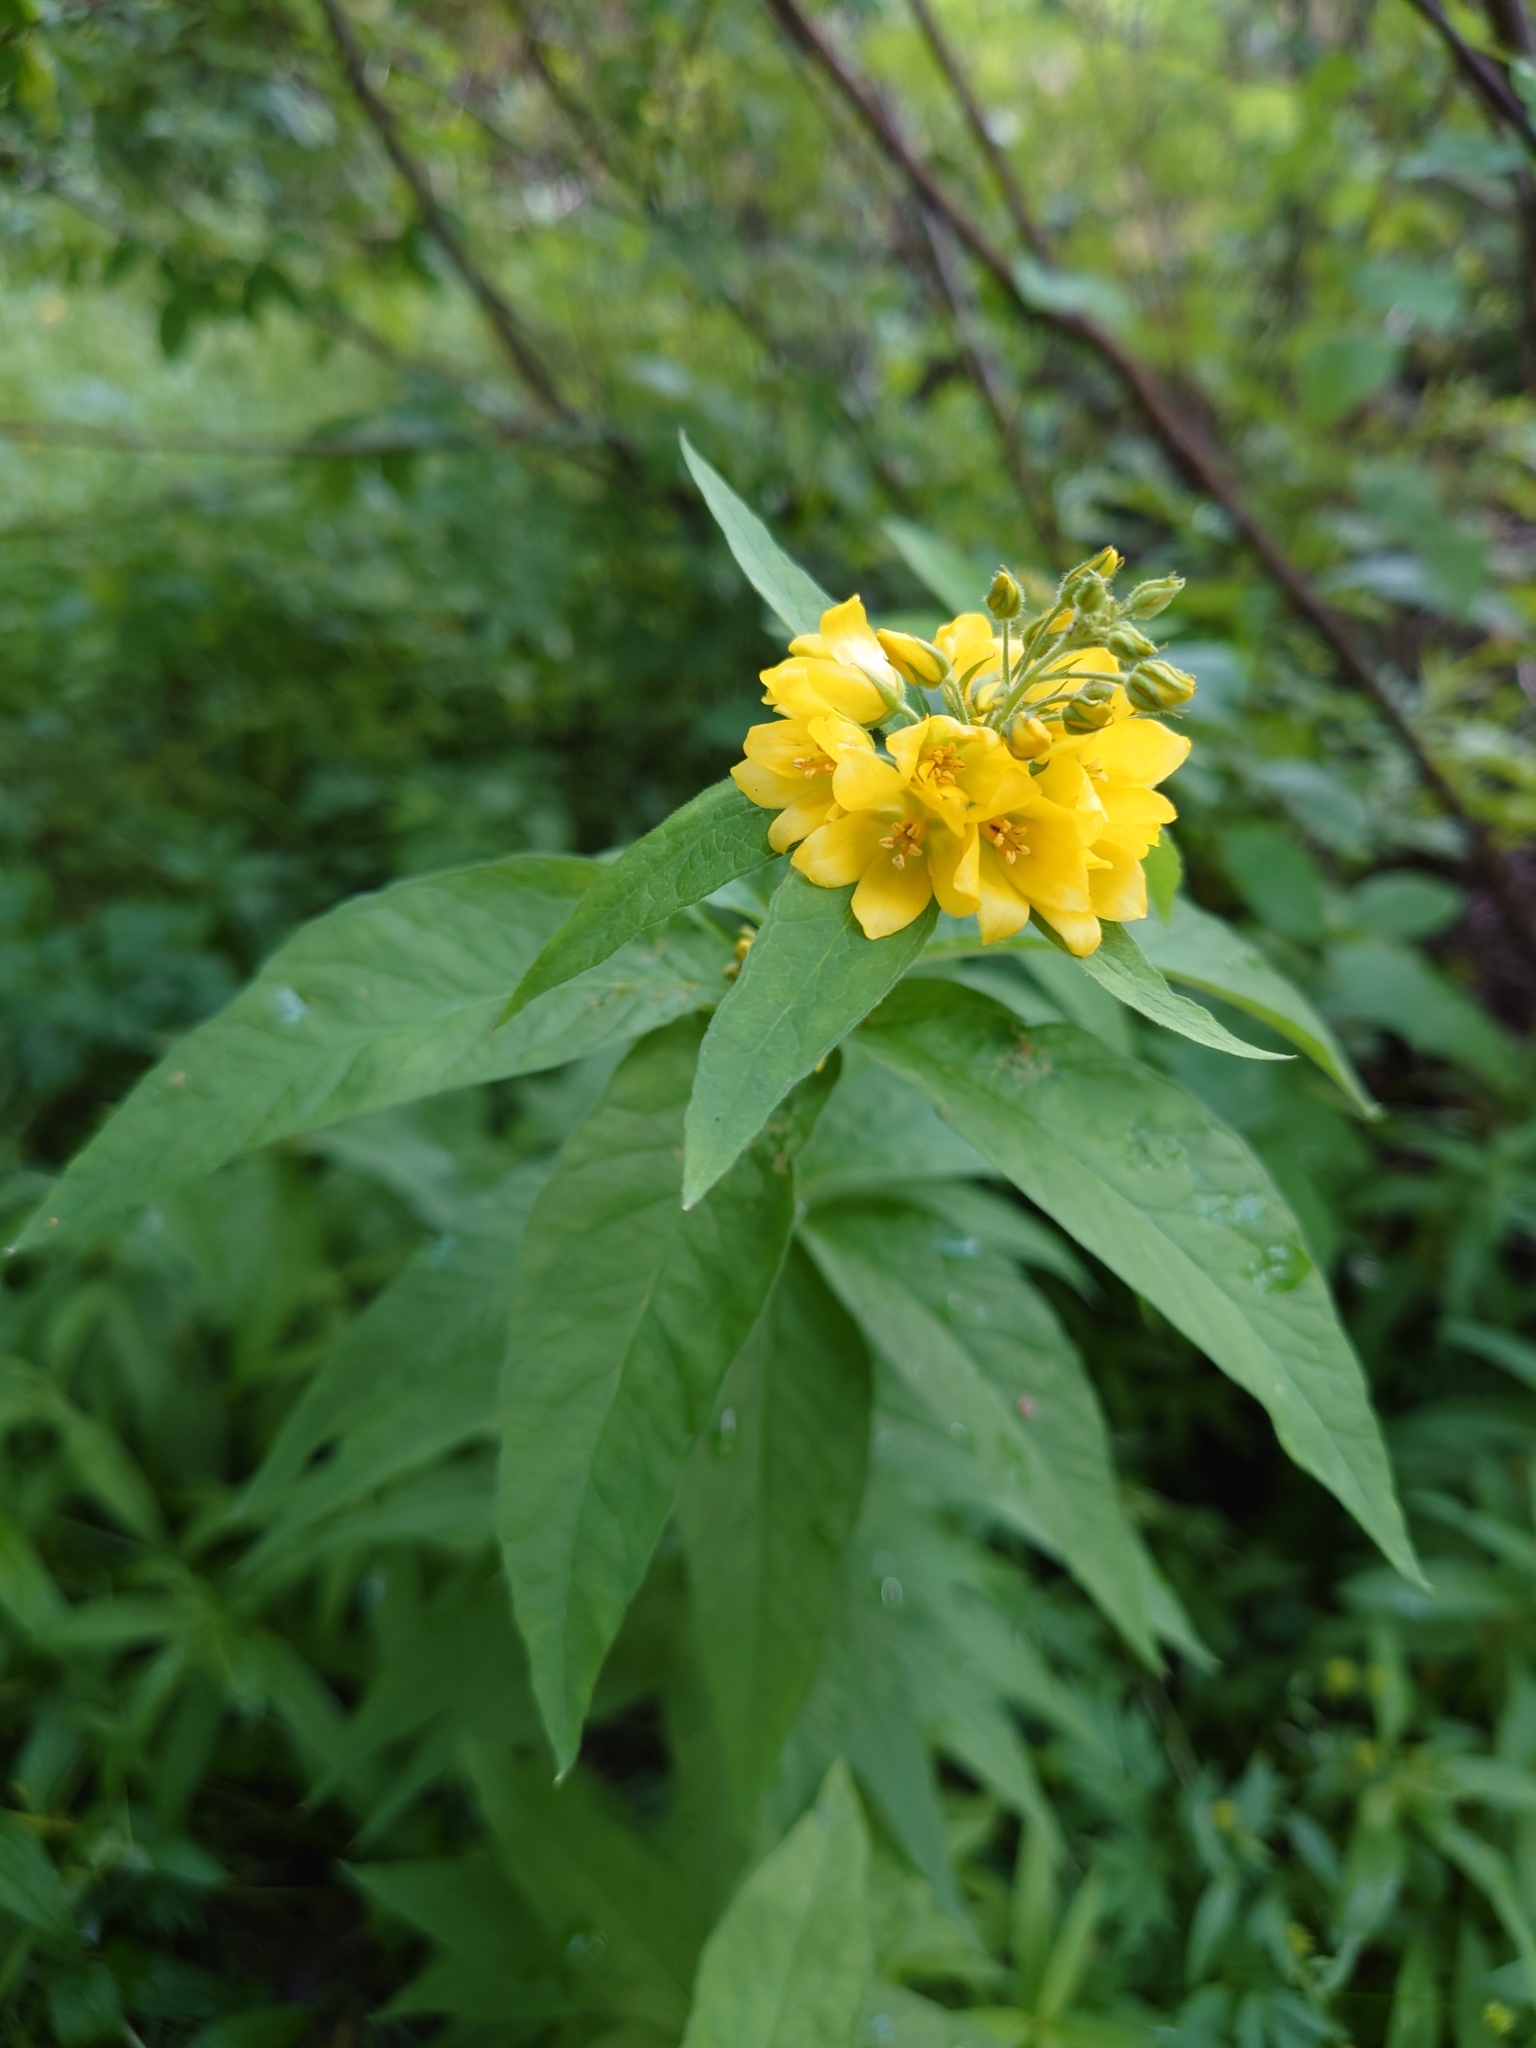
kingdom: Plantae
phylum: Tracheophyta
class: Magnoliopsida
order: Ericales
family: Primulaceae
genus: Lysimachia
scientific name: Lysimachia vulgaris
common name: Yellow loosestrife
